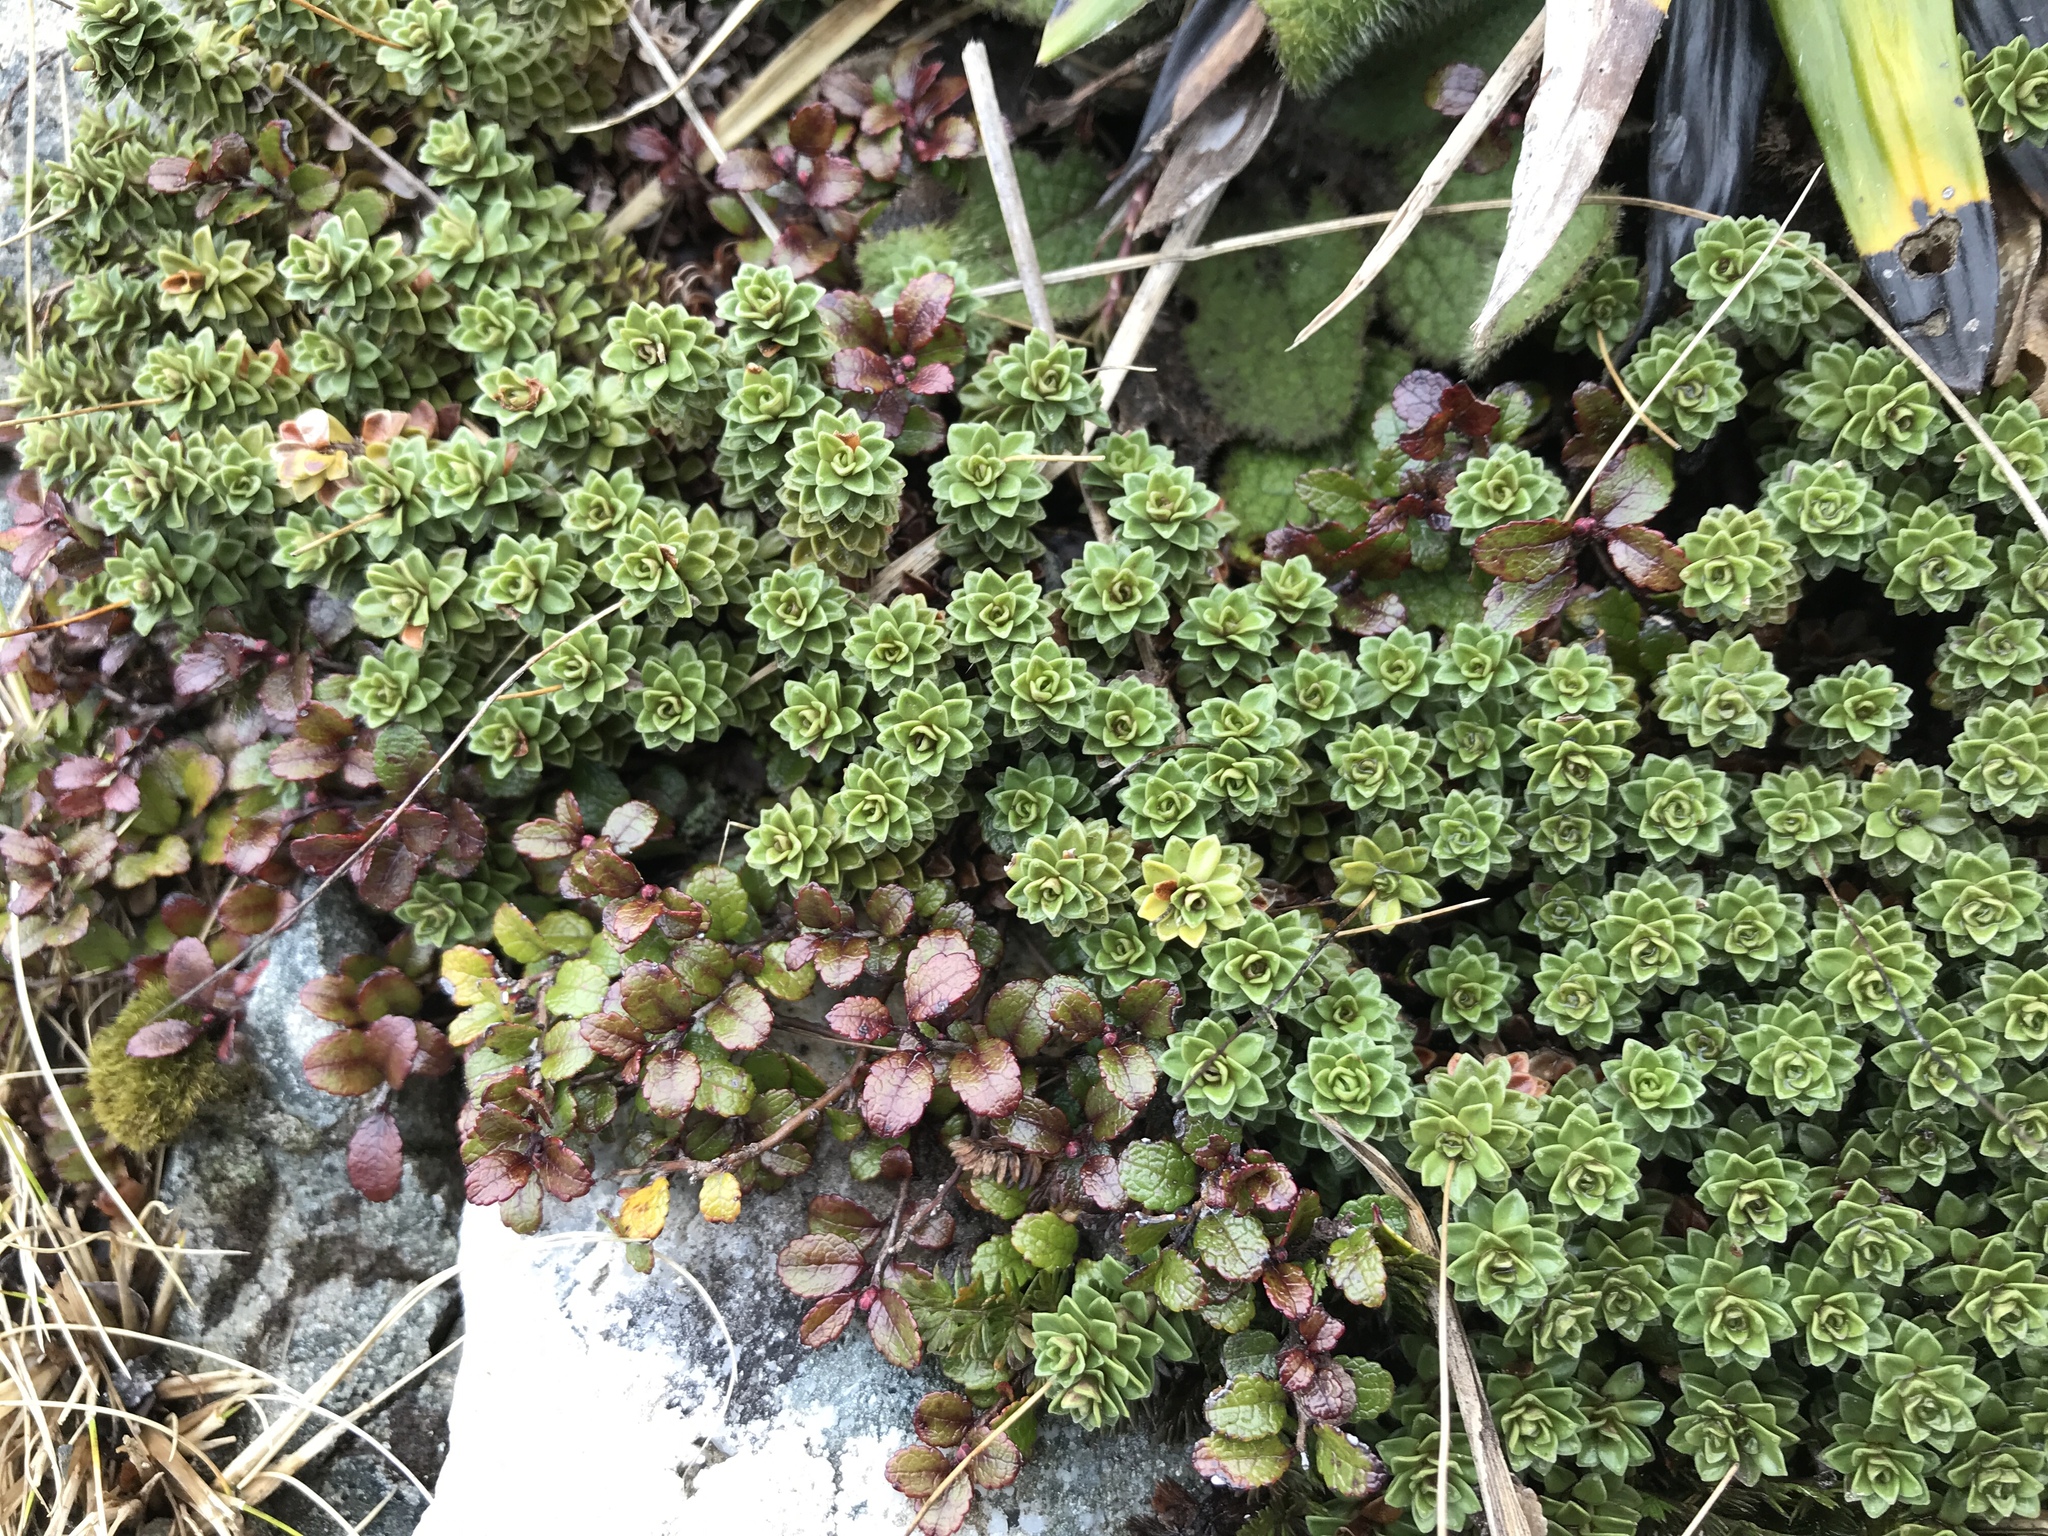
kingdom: Plantae
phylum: Tracheophyta
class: Magnoliopsida
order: Asterales
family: Stylidiaceae
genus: Forstera
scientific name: Forstera purpurata
